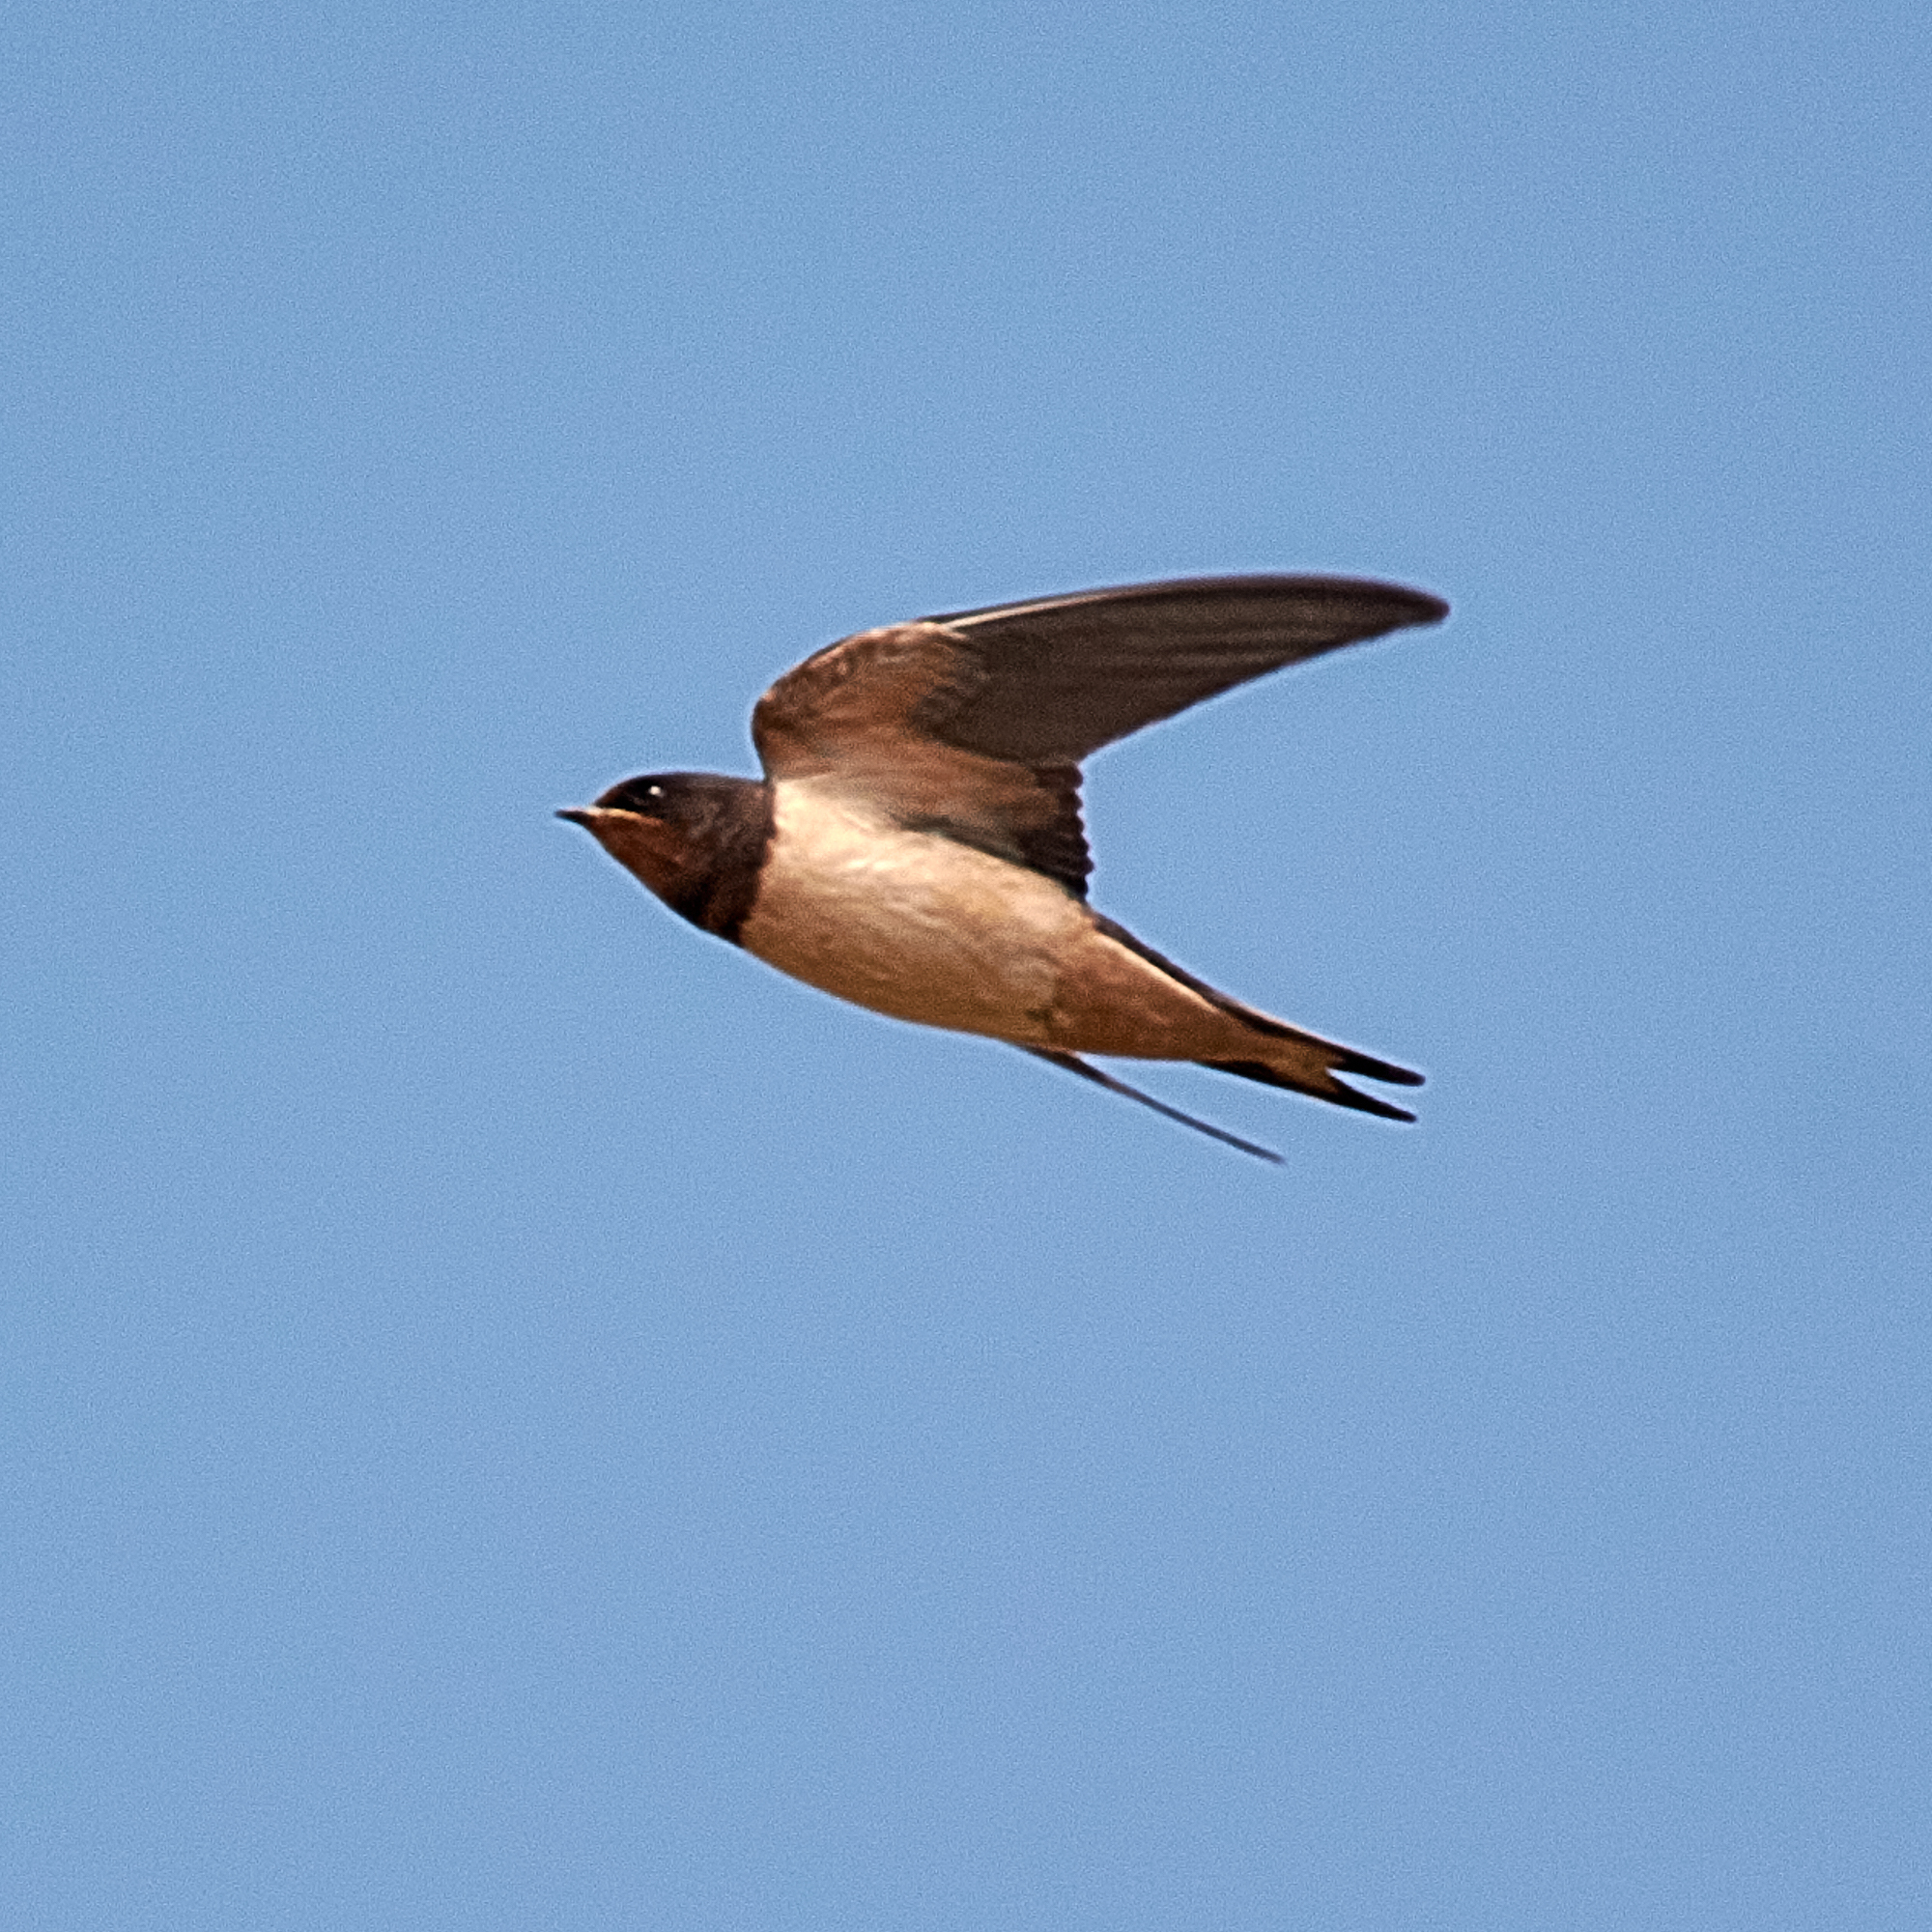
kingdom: Animalia
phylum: Chordata
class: Aves
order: Passeriformes
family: Hirundinidae
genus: Hirundo
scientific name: Hirundo rustica
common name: Barn swallow
